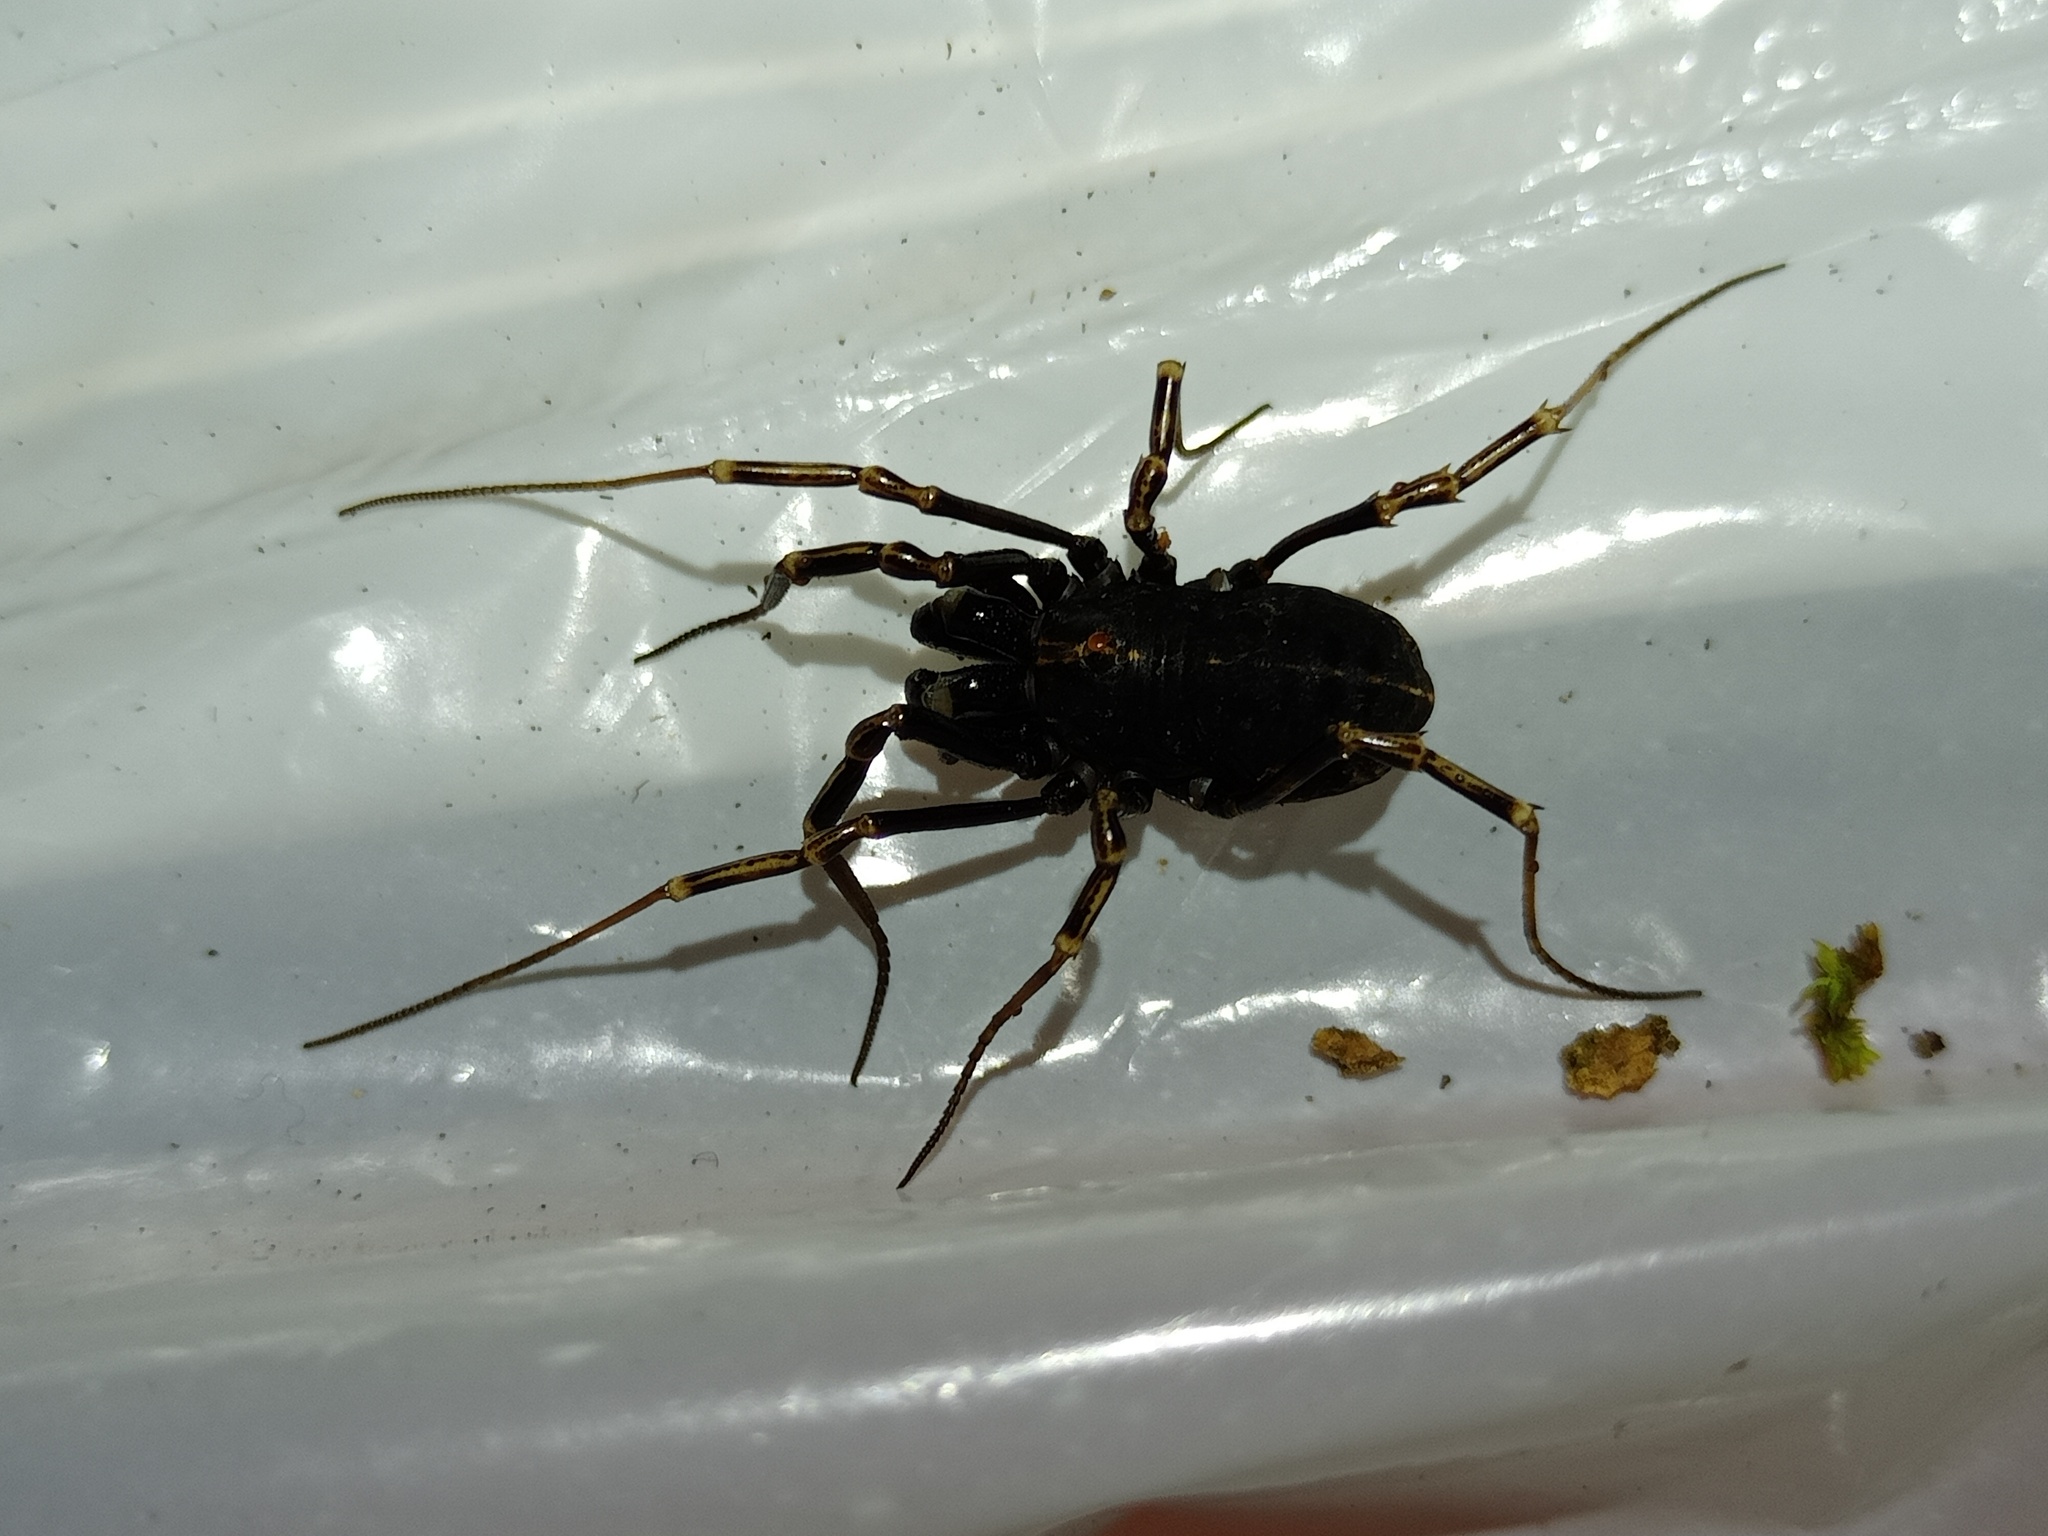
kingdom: Animalia
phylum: Arthropoda
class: Arachnida
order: Opiliones
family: Phalangiidae
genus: Egaenus
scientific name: Egaenus convexus
